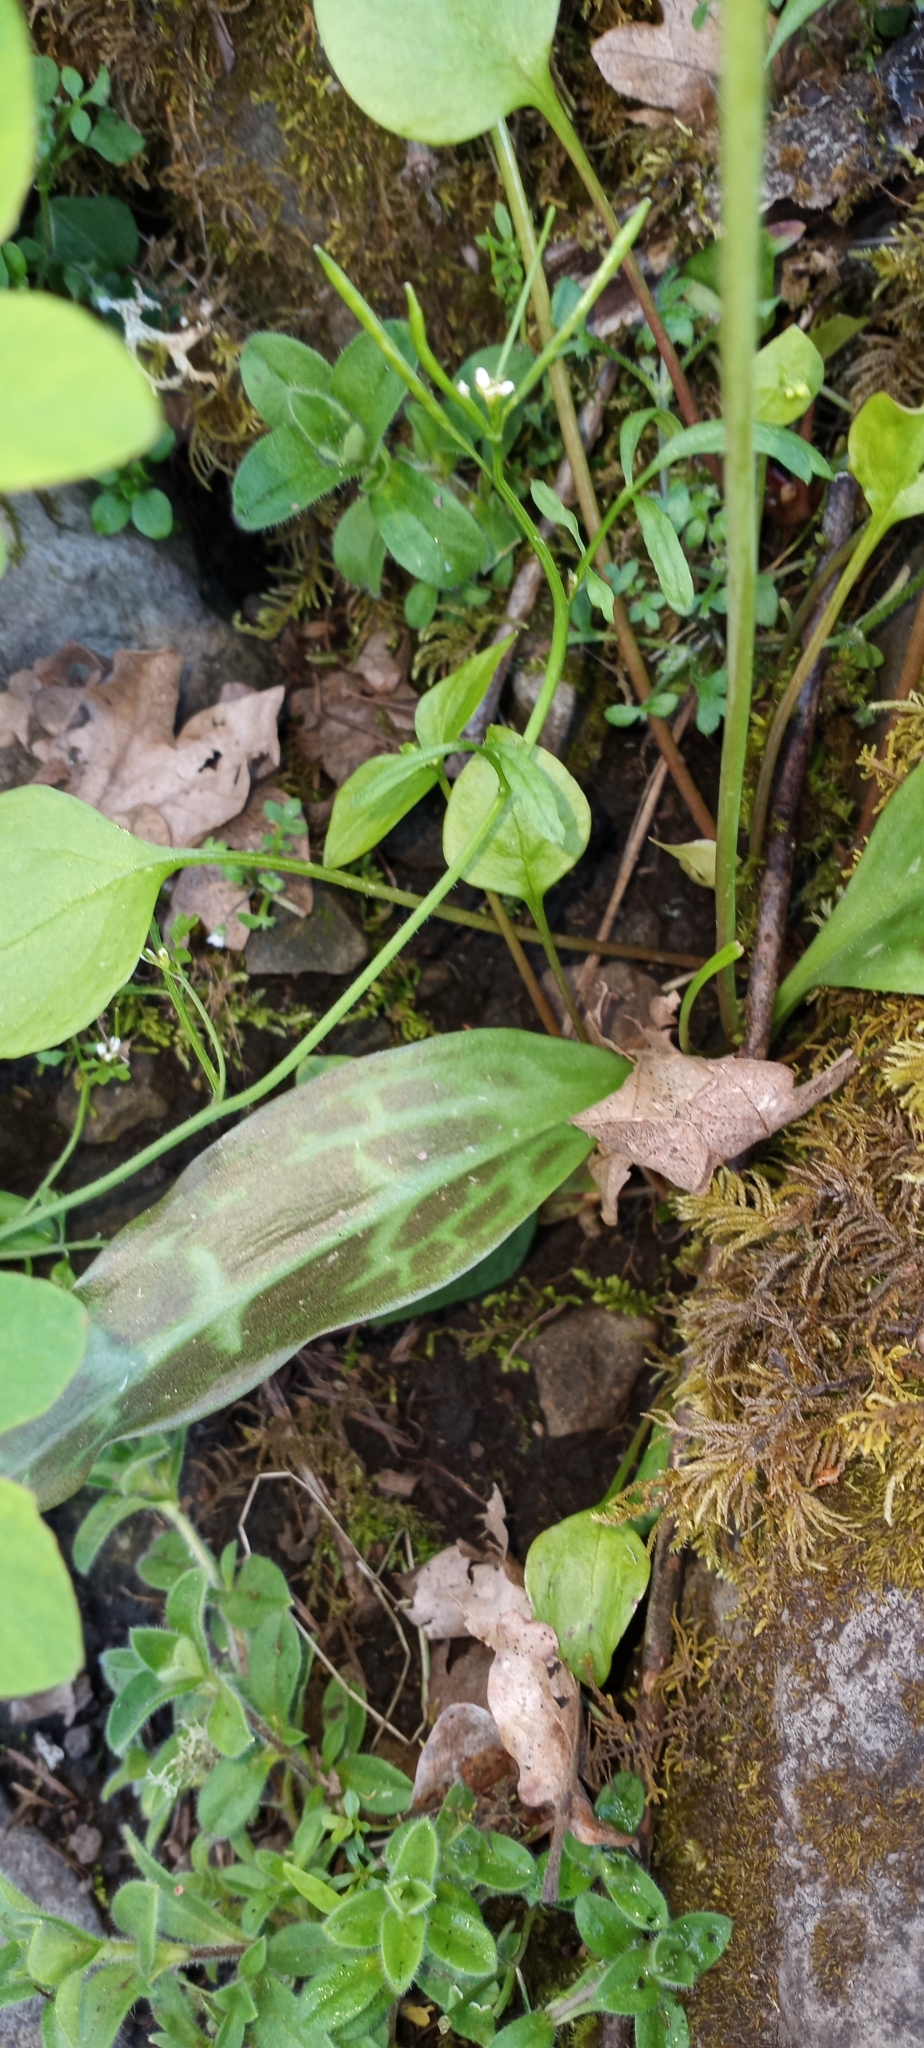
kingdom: Plantae
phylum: Tracheophyta
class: Liliopsida
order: Liliales
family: Liliaceae
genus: Erythronium
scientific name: Erythronium oregonum
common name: Giant adder's-tongue
